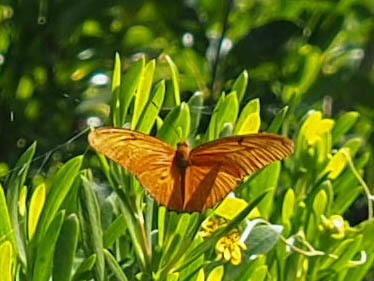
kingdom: Animalia
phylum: Arthropoda
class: Insecta
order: Lepidoptera
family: Nymphalidae
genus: Dryas
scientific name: Dryas iulia
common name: Flambeau
